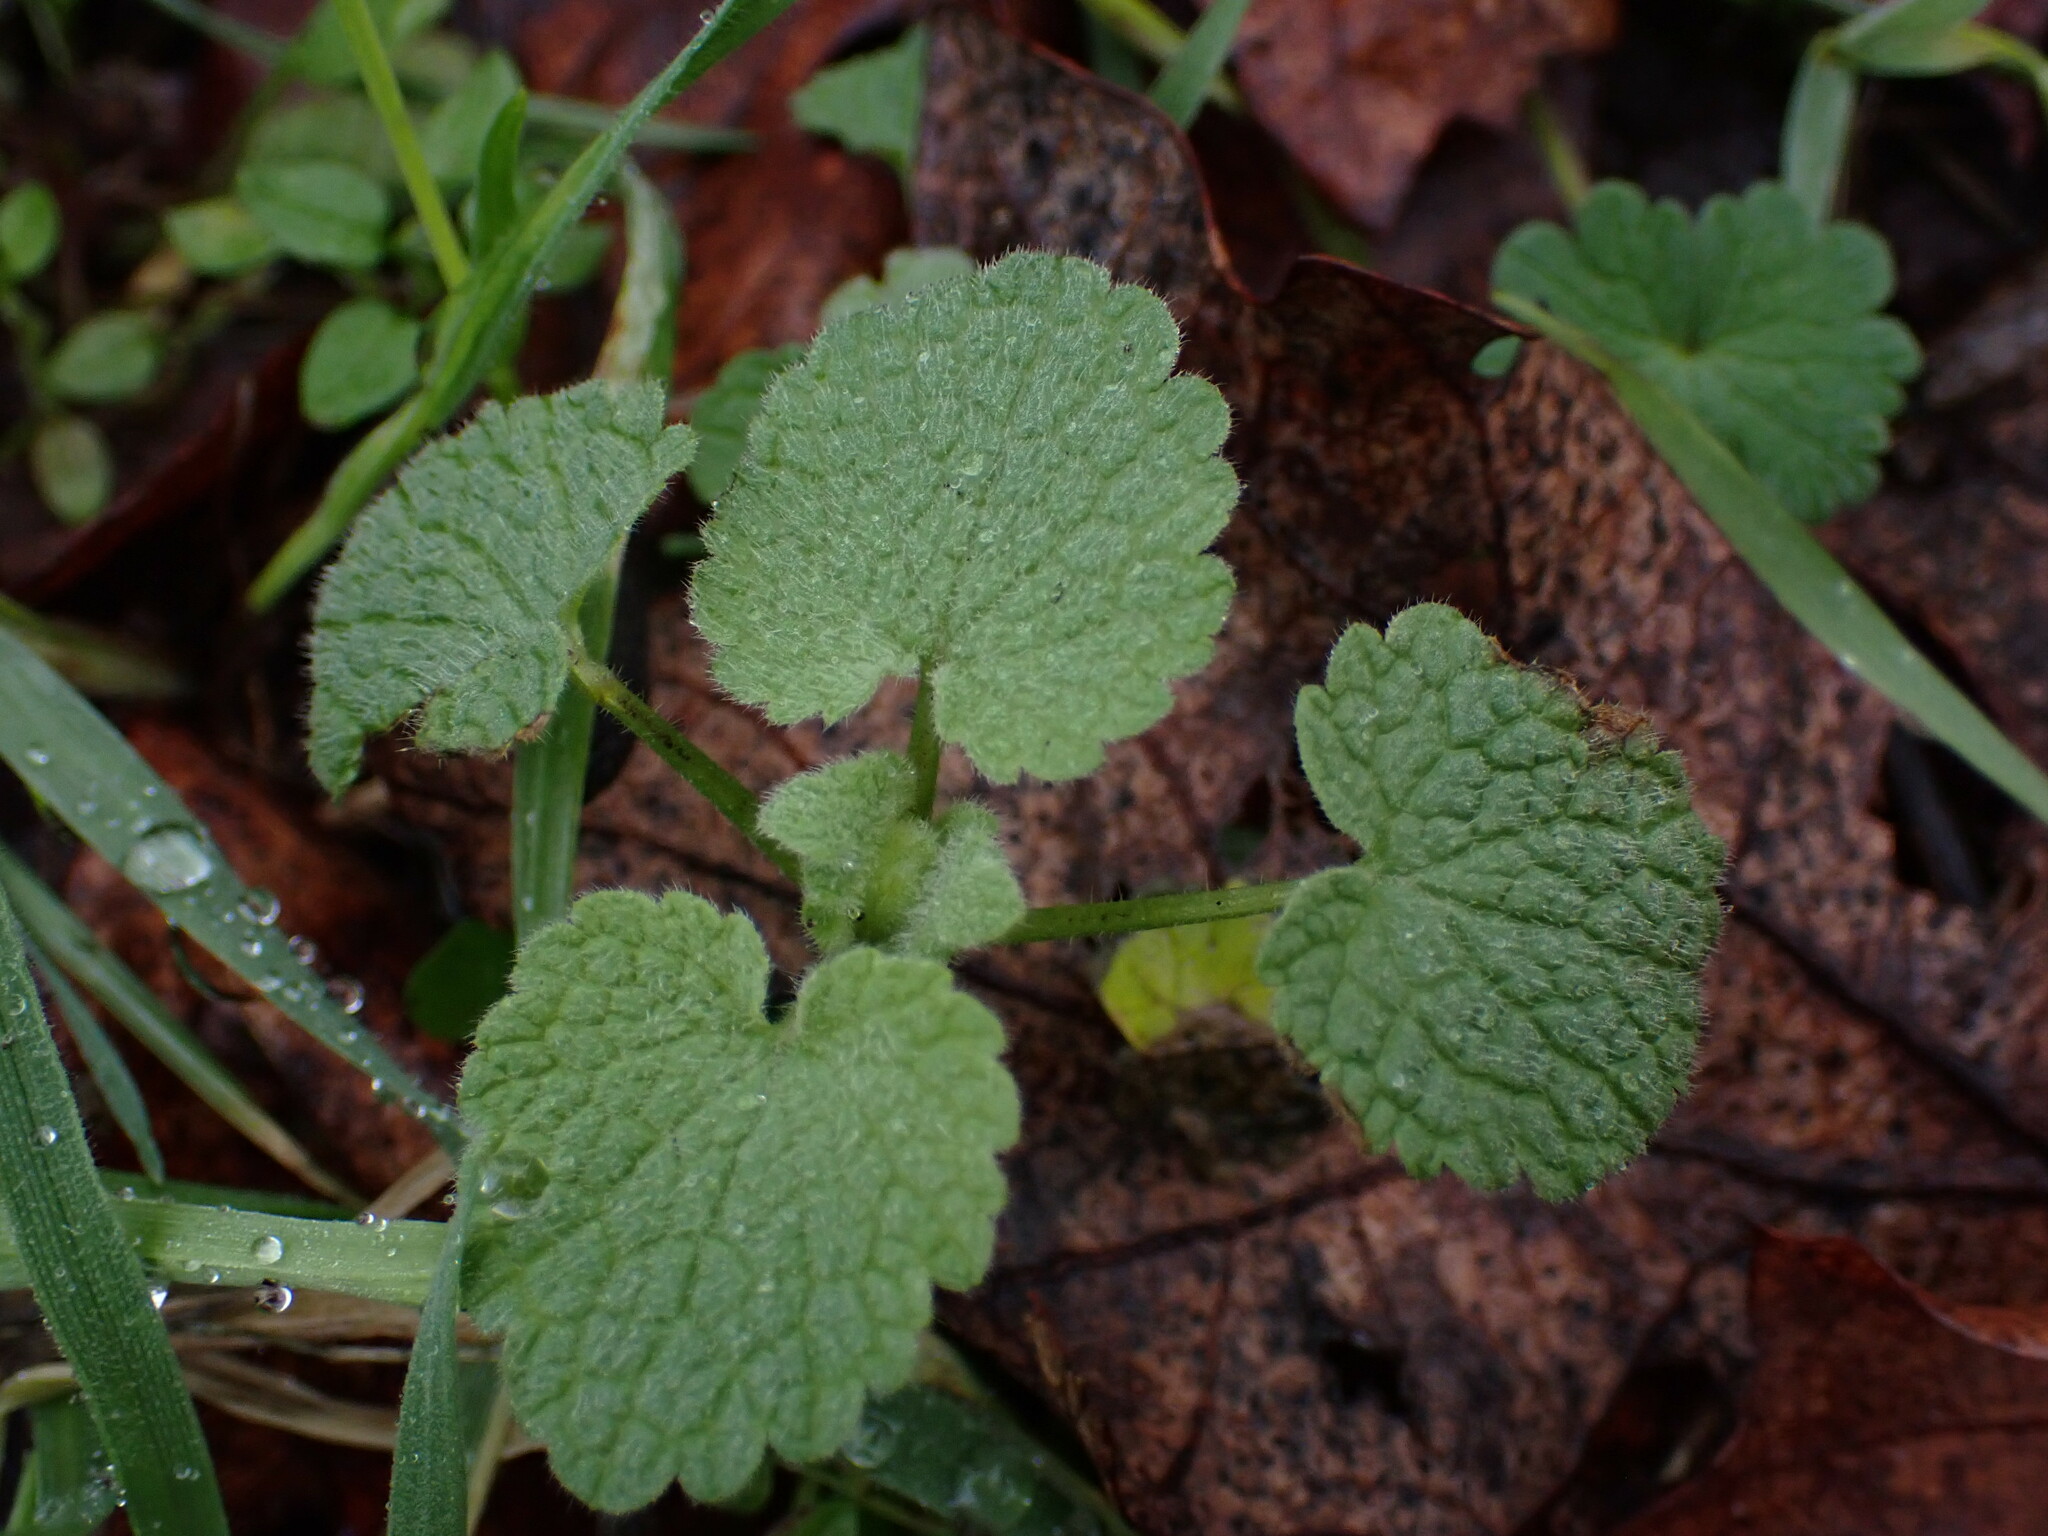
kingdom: Plantae
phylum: Tracheophyta
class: Magnoliopsida
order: Lamiales
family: Lamiaceae
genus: Lamium
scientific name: Lamium purpureum
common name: Red dead-nettle
